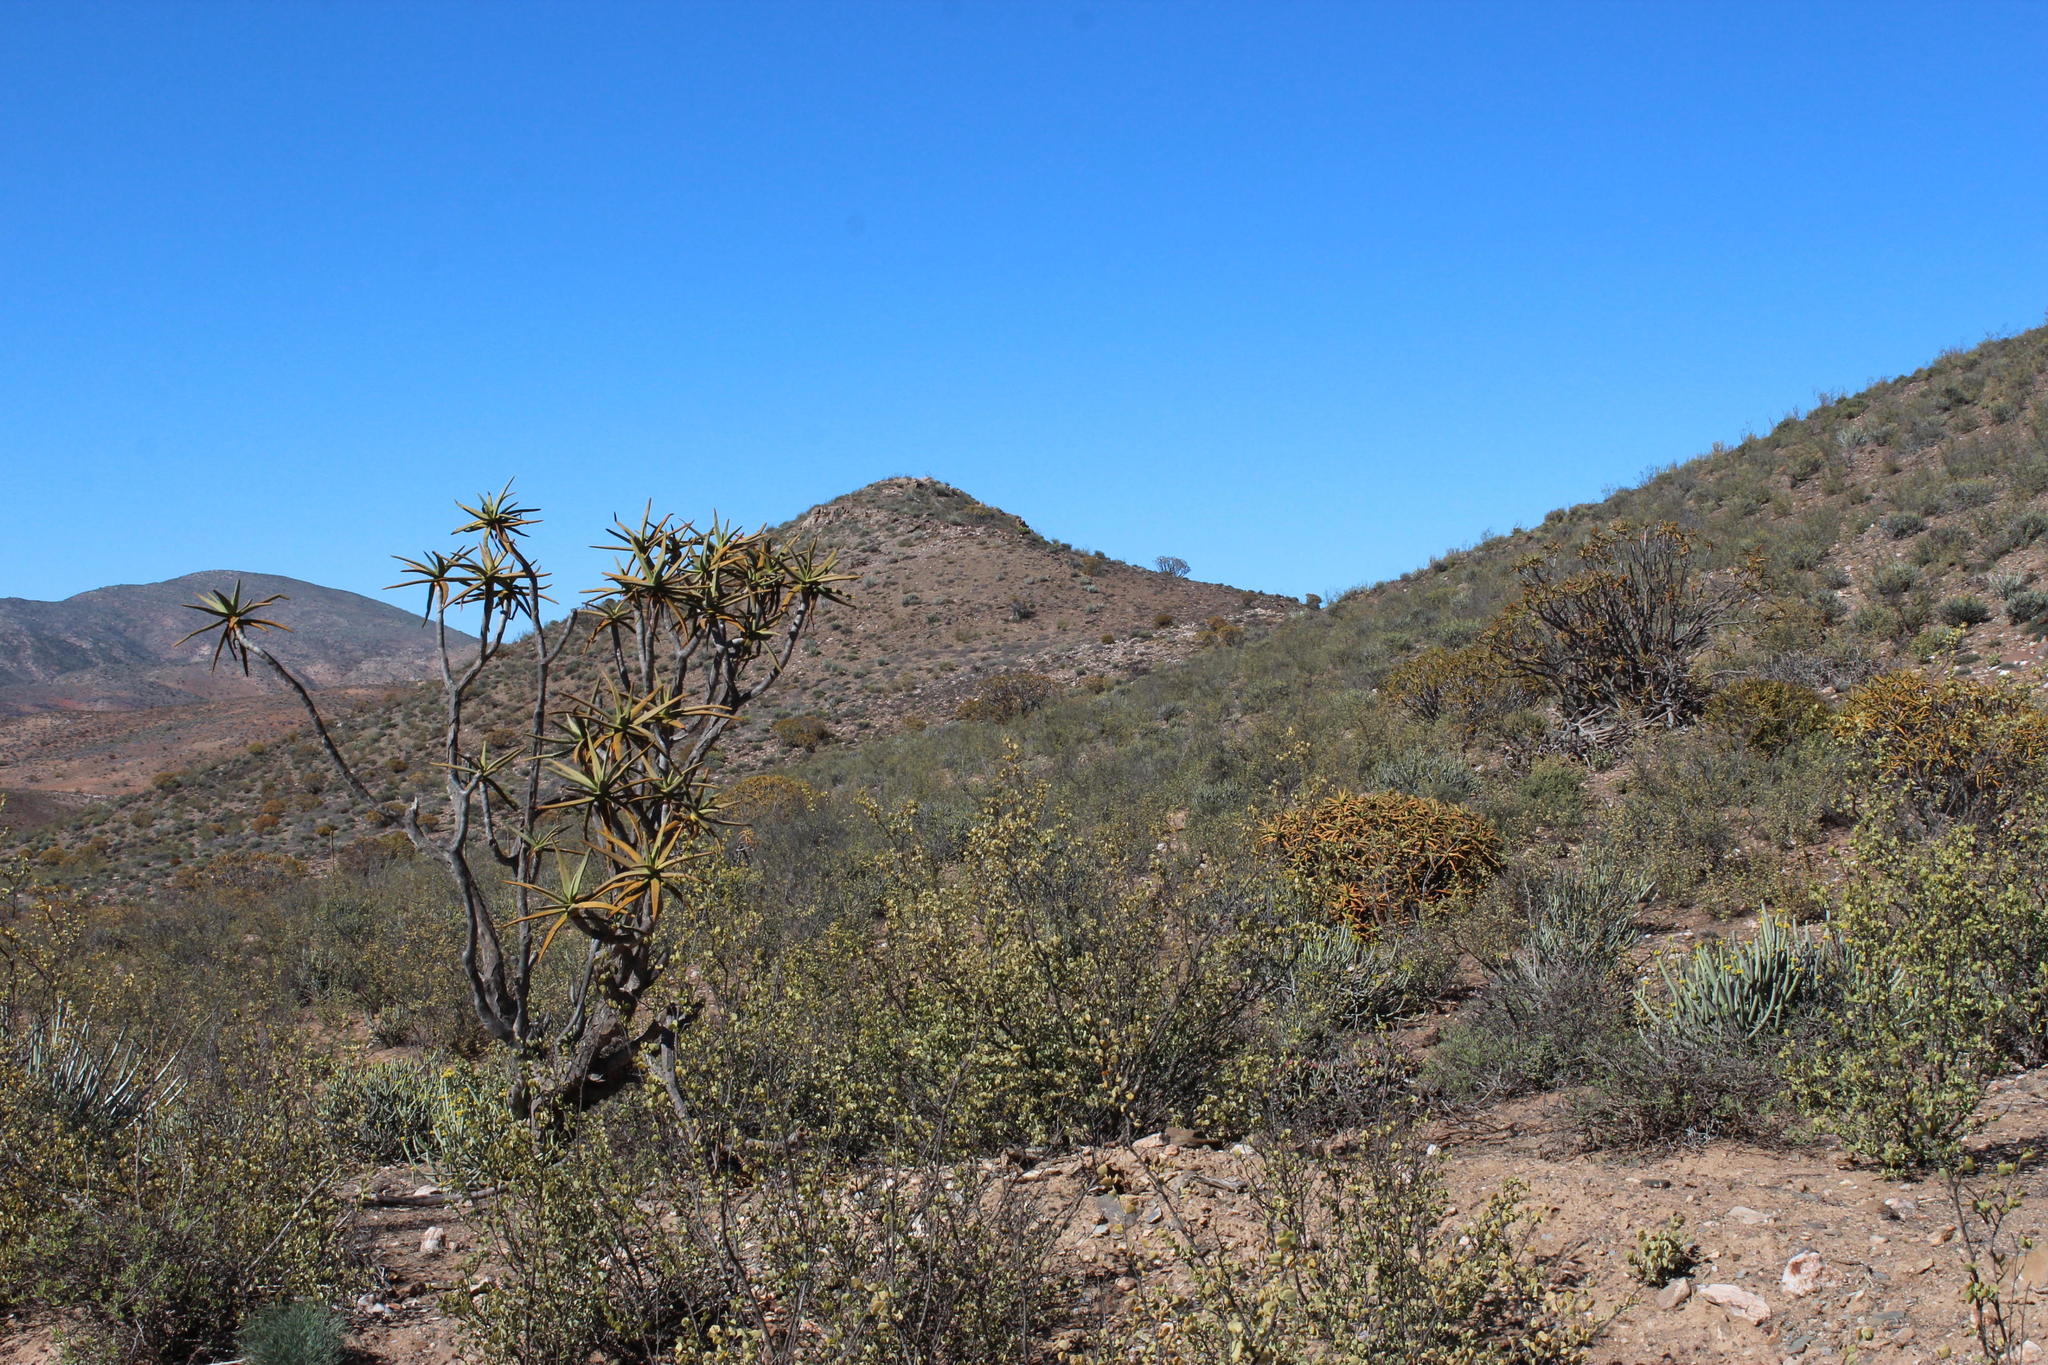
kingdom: Plantae
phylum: Tracheophyta
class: Liliopsida
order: Asparagales
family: Asphodelaceae
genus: Aloidendron
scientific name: Aloidendron ramosissimum
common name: Bush quiver tree
